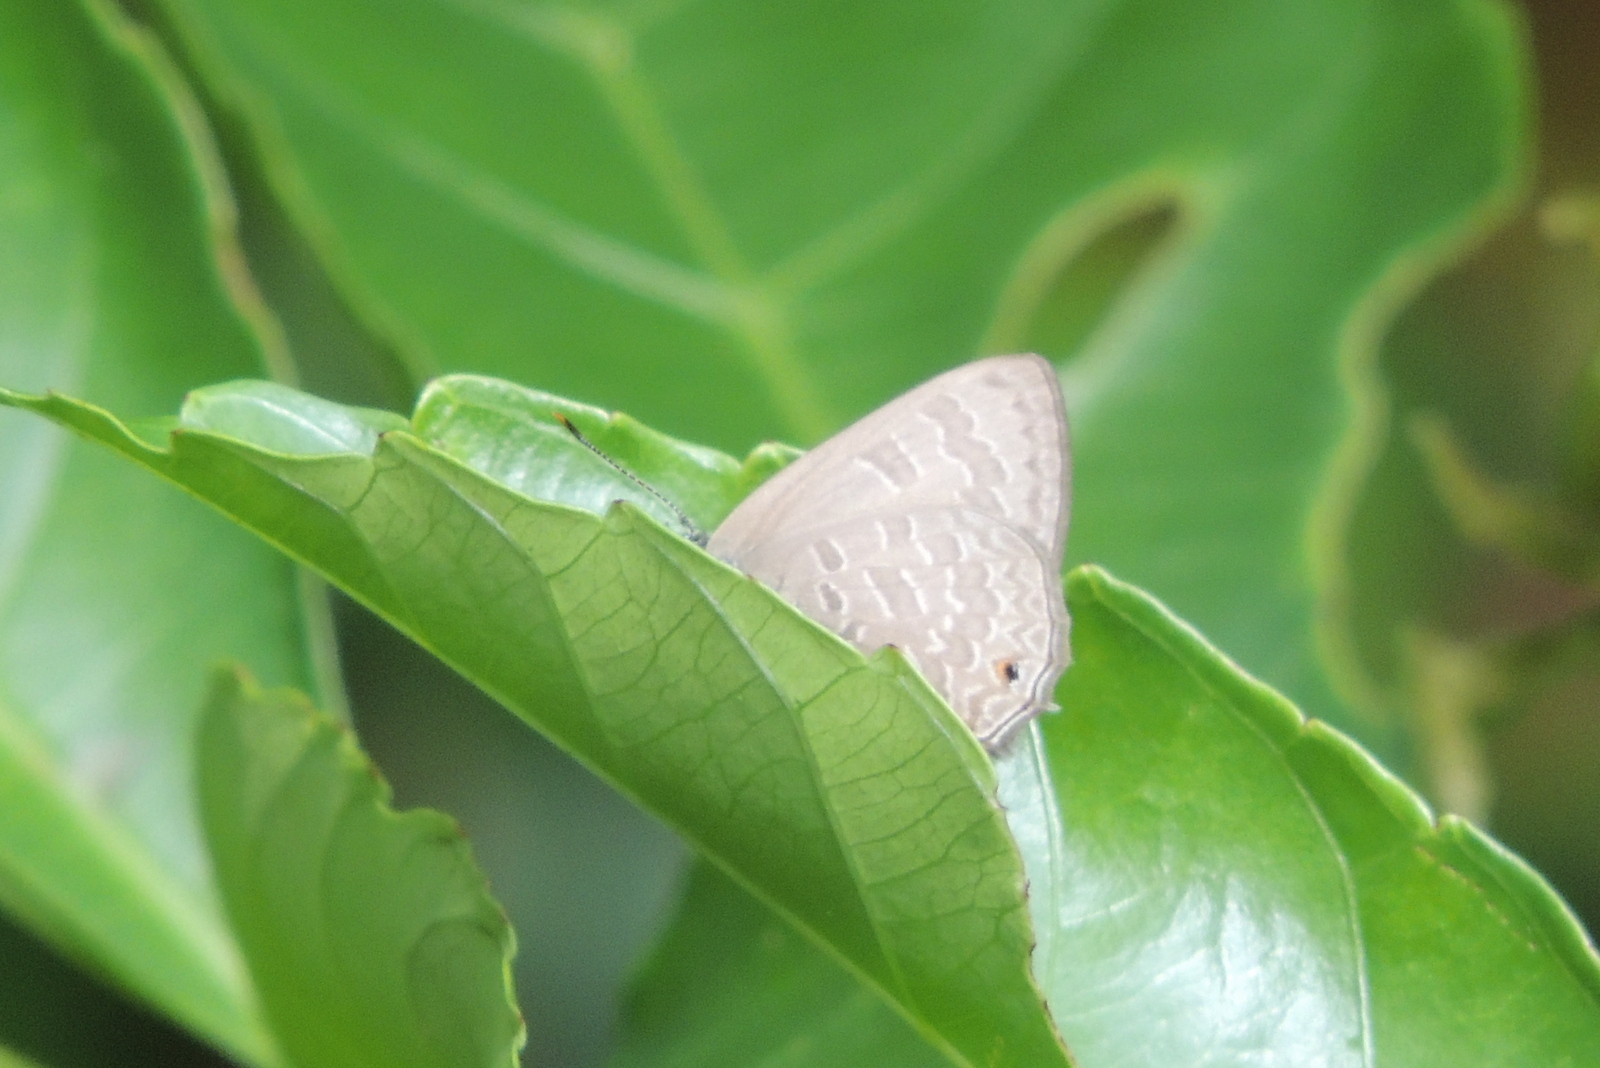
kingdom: Animalia
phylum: Arthropoda
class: Insecta
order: Lepidoptera
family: Lycaenidae
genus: Anthene
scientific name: Anthene emolus
